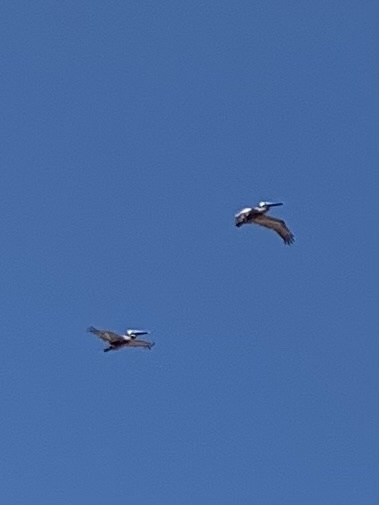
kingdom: Animalia
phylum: Chordata
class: Aves
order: Pelecaniformes
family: Pelecanidae
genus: Pelecanus
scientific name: Pelecanus occidentalis
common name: Brown pelican
